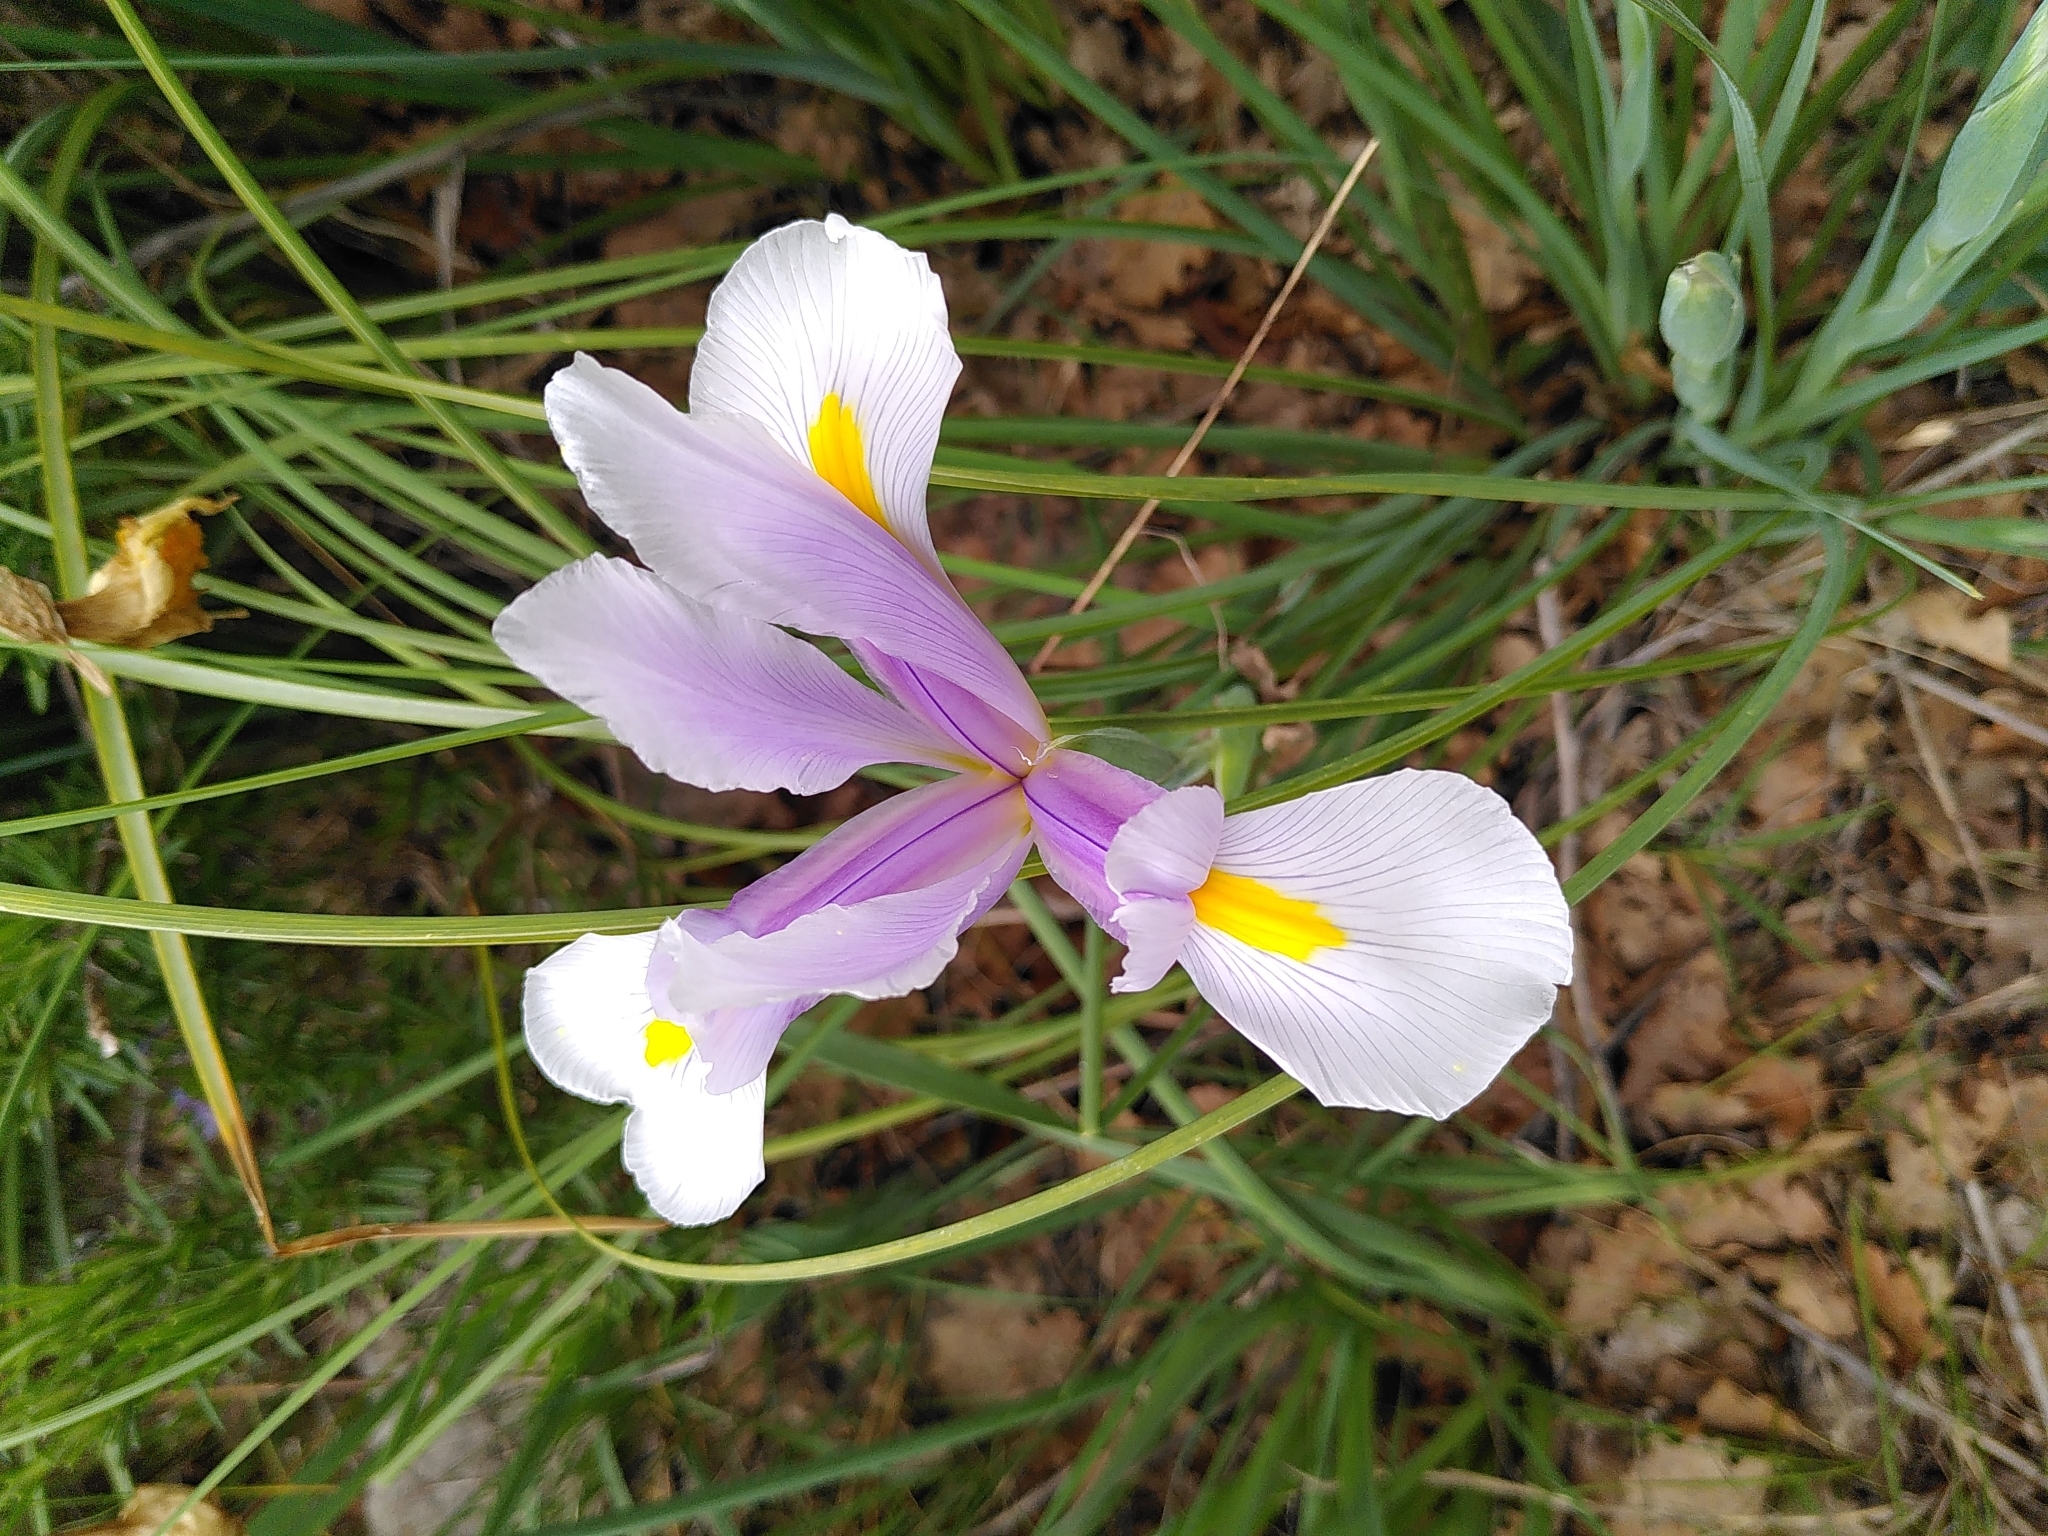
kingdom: Plantae
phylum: Tracheophyta
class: Liliopsida
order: Asparagales
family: Iridaceae
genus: Iris
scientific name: Iris hollandica
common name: Dutch iris
